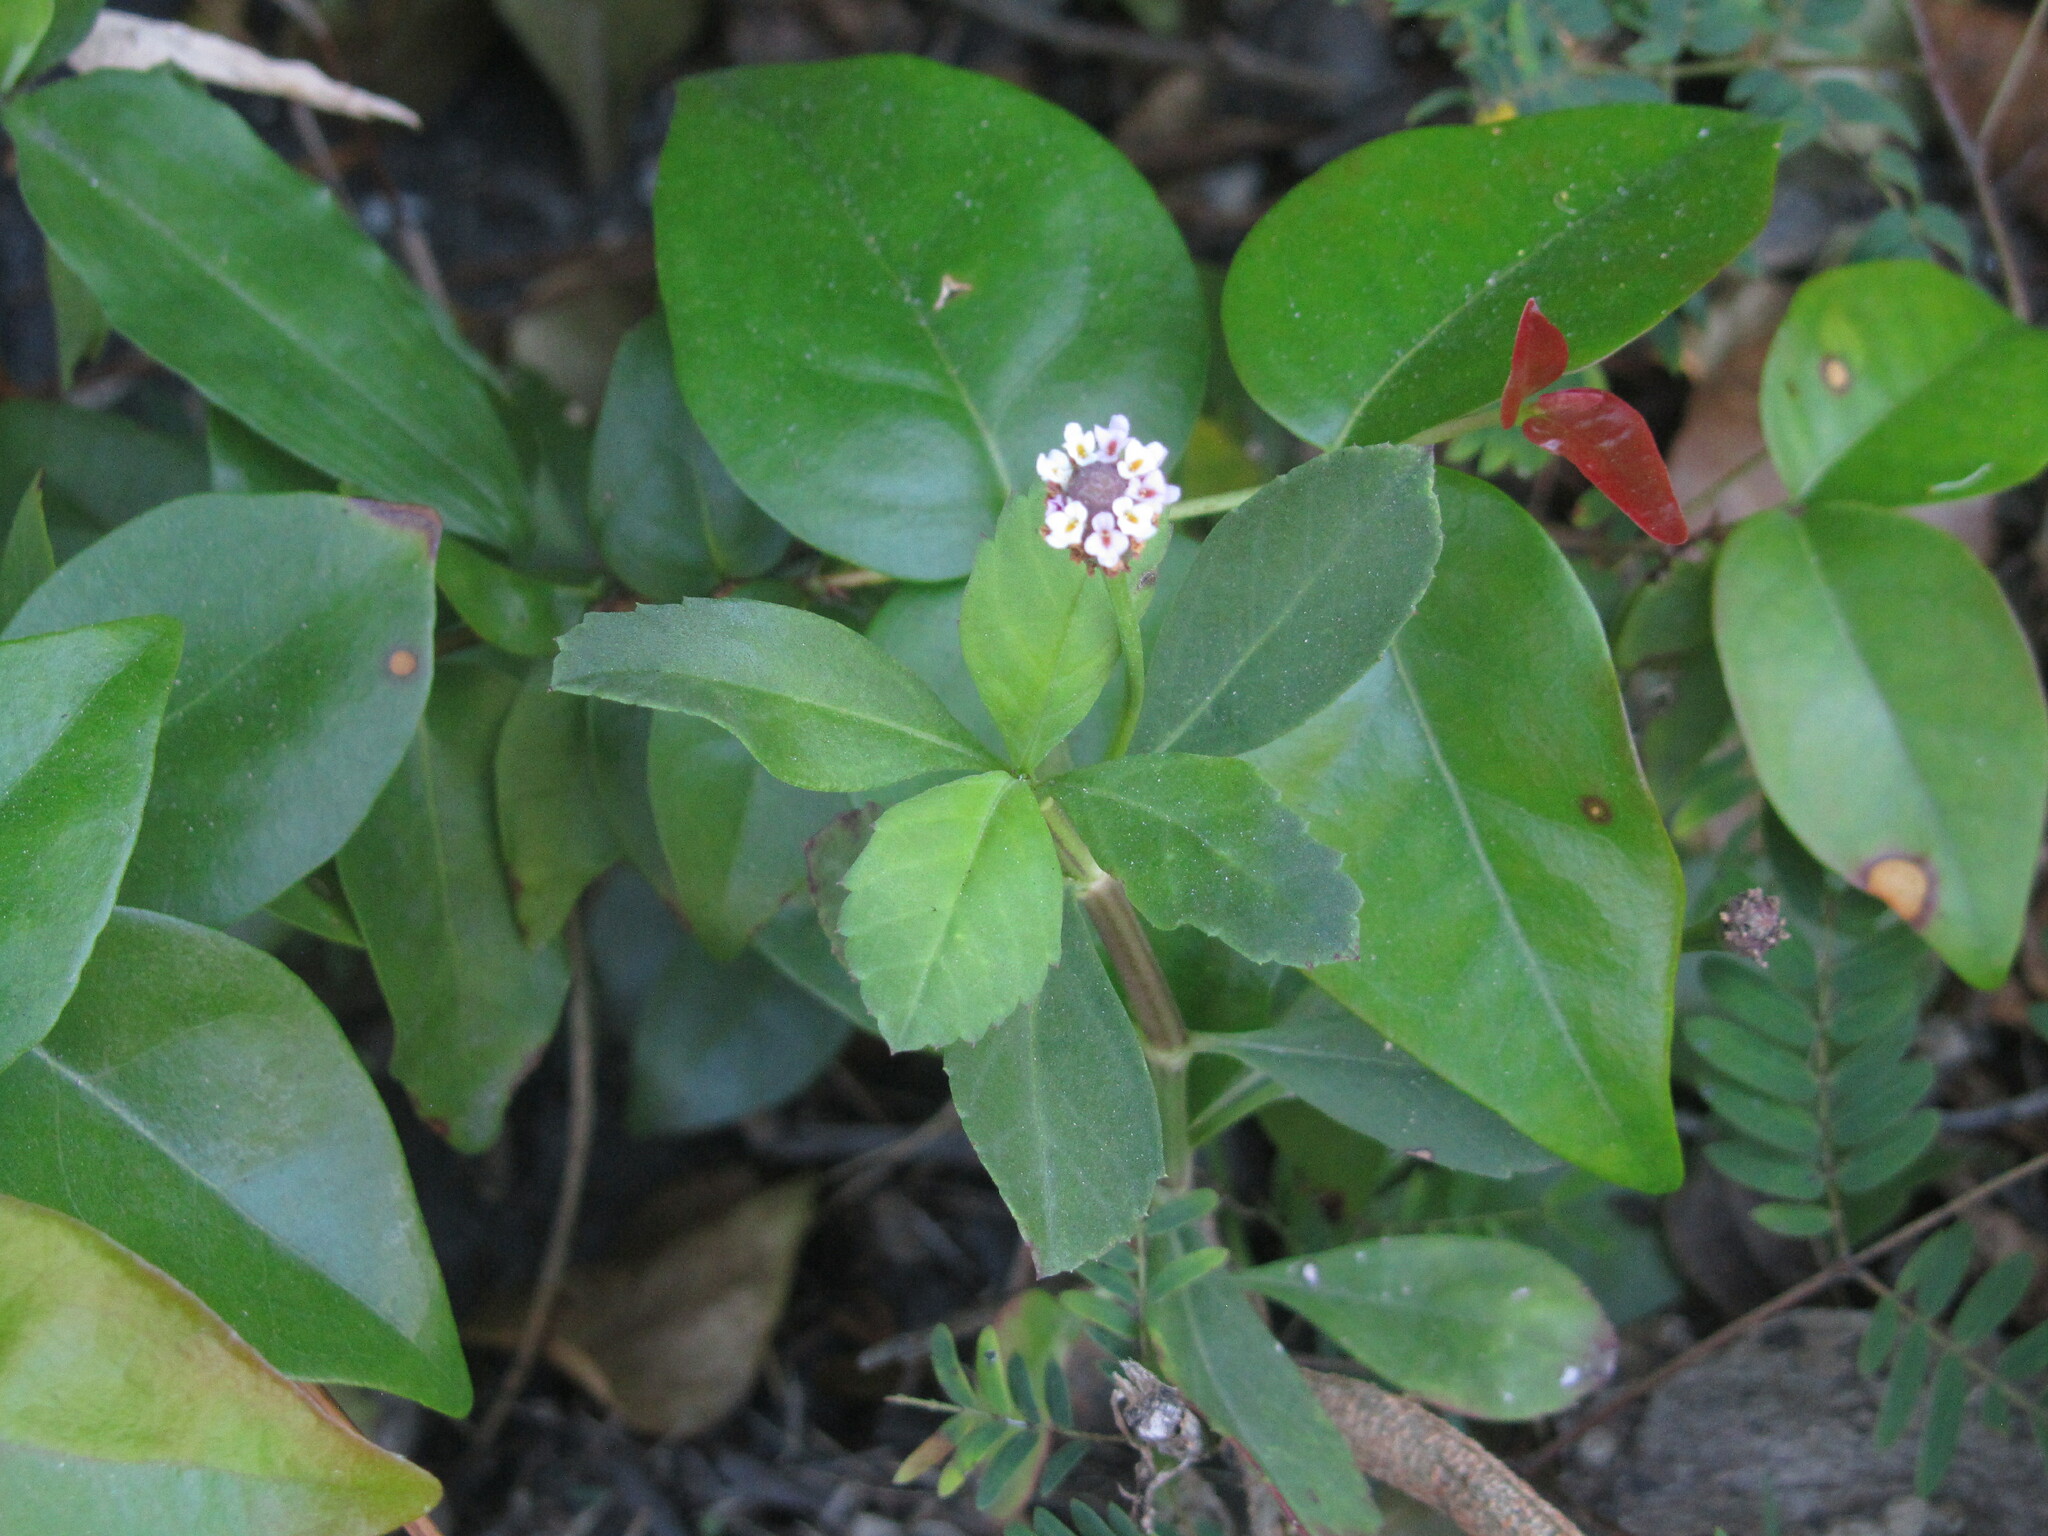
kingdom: Plantae
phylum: Tracheophyta
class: Magnoliopsida
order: Lamiales
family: Verbenaceae
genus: Phyla
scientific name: Phyla nodiflora
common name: Frogfruit
